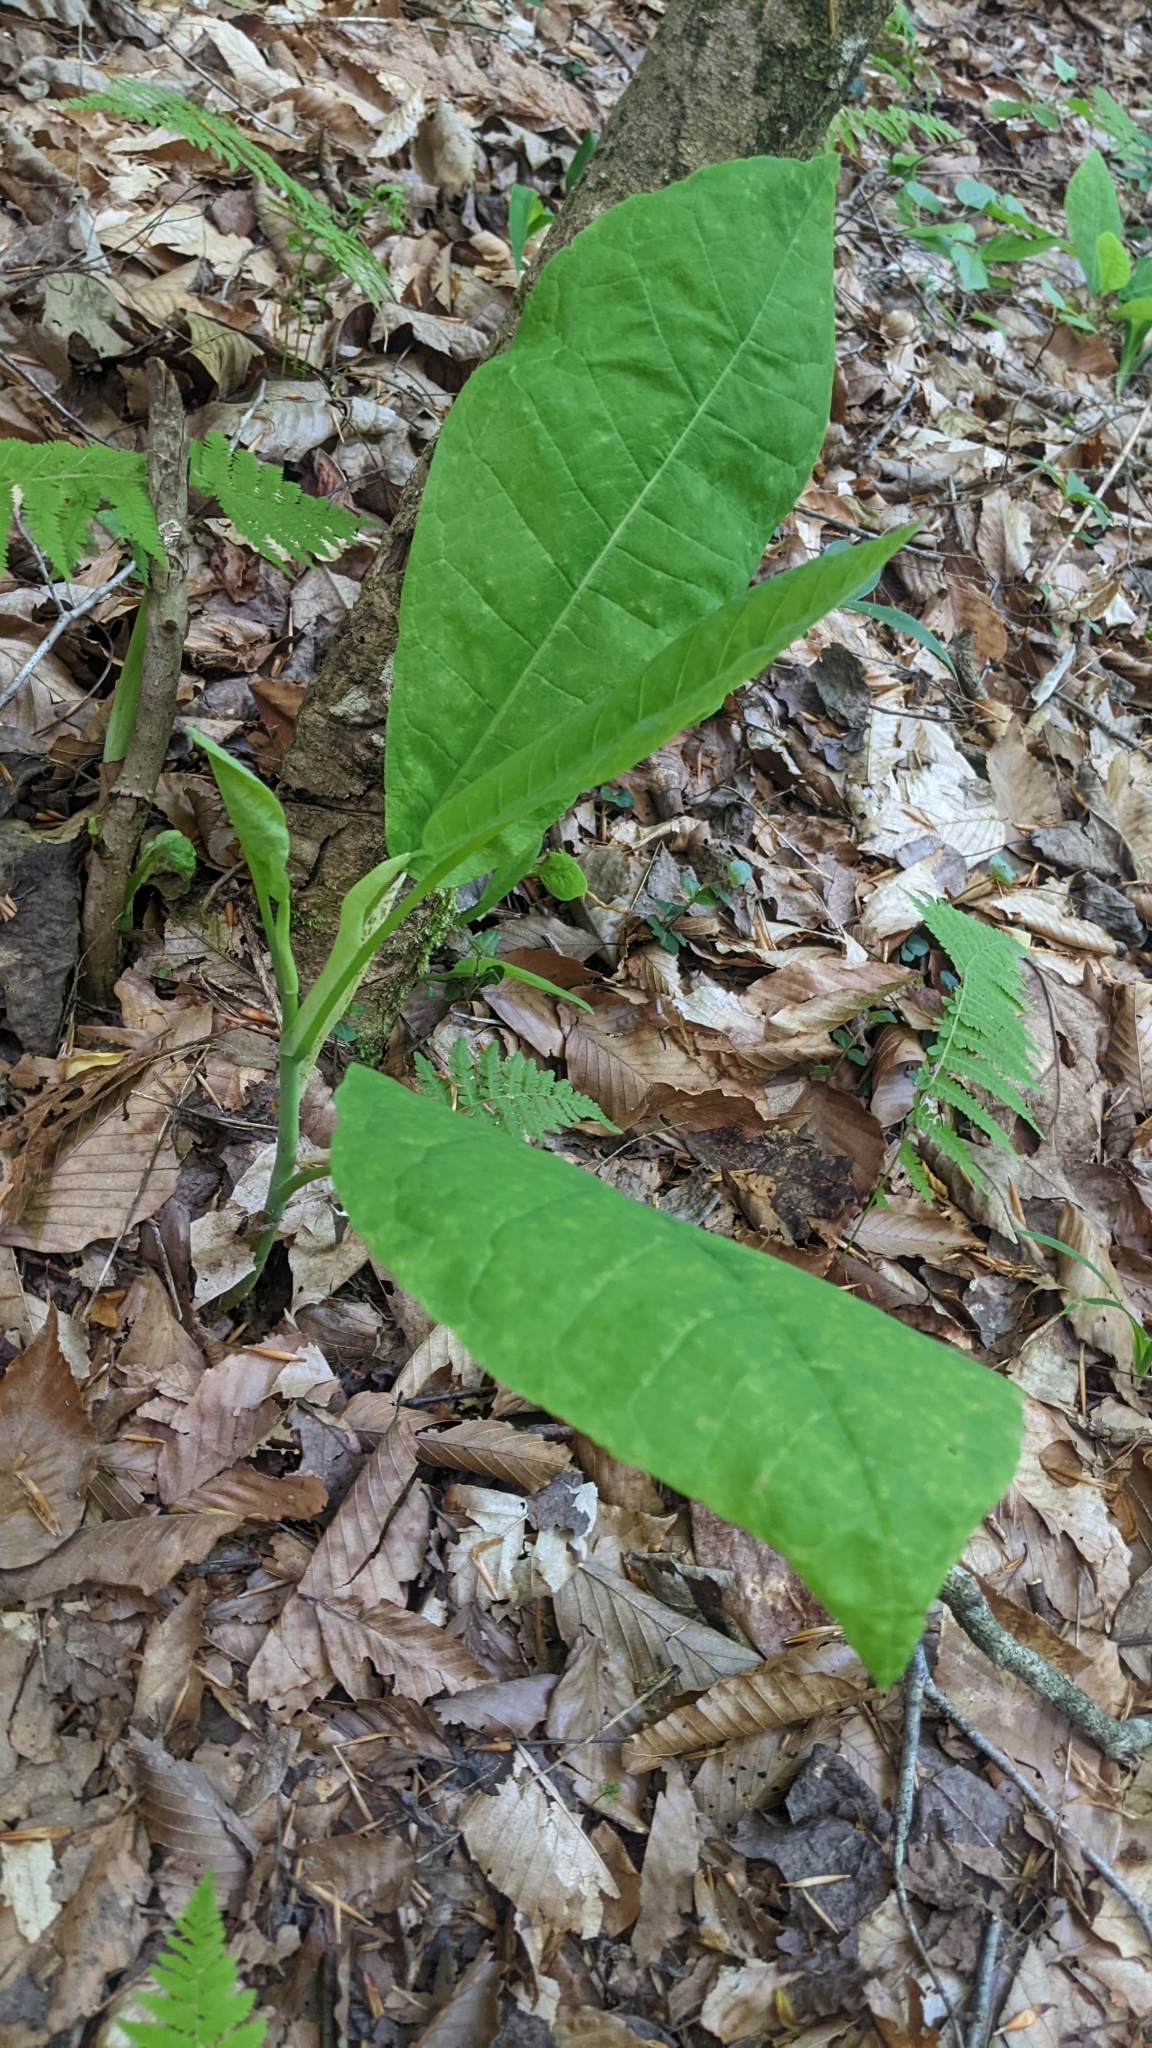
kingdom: Plantae
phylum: Tracheophyta
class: Magnoliopsida
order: Magnoliales
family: Magnoliaceae
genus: Magnolia
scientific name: Magnolia macrophylla
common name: Big-leaf magnolia
